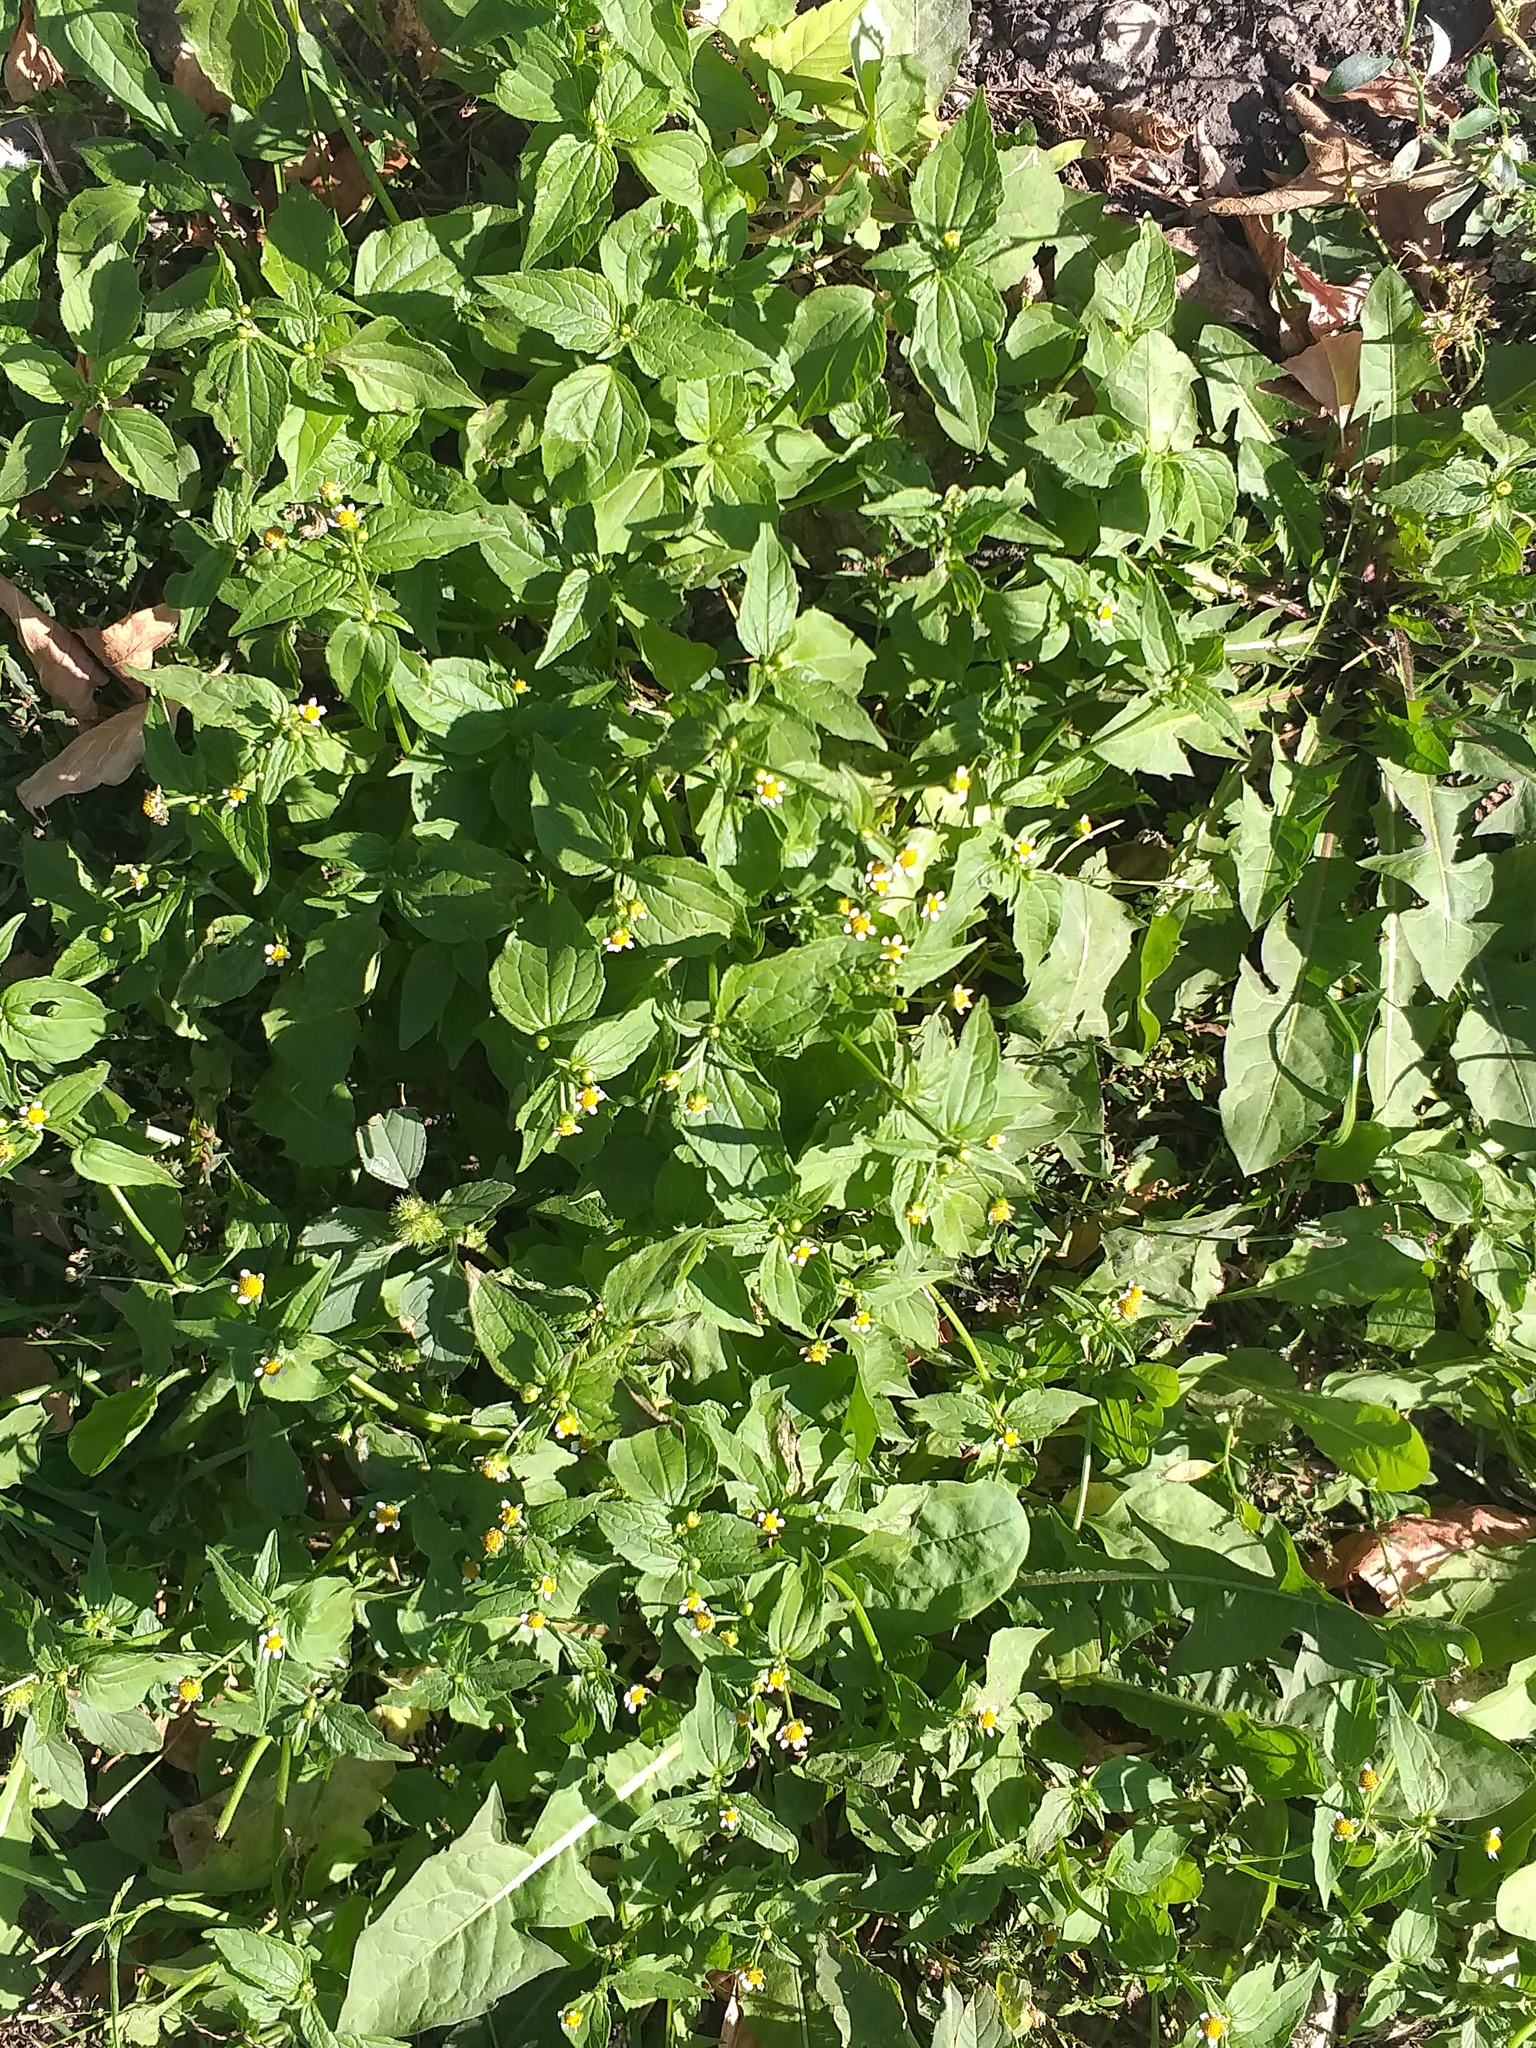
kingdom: Plantae
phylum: Tracheophyta
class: Magnoliopsida
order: Asterales
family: Asteraceae
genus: Galinsoga
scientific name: Galinsoga quadriradiata
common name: Shaggy soldier
